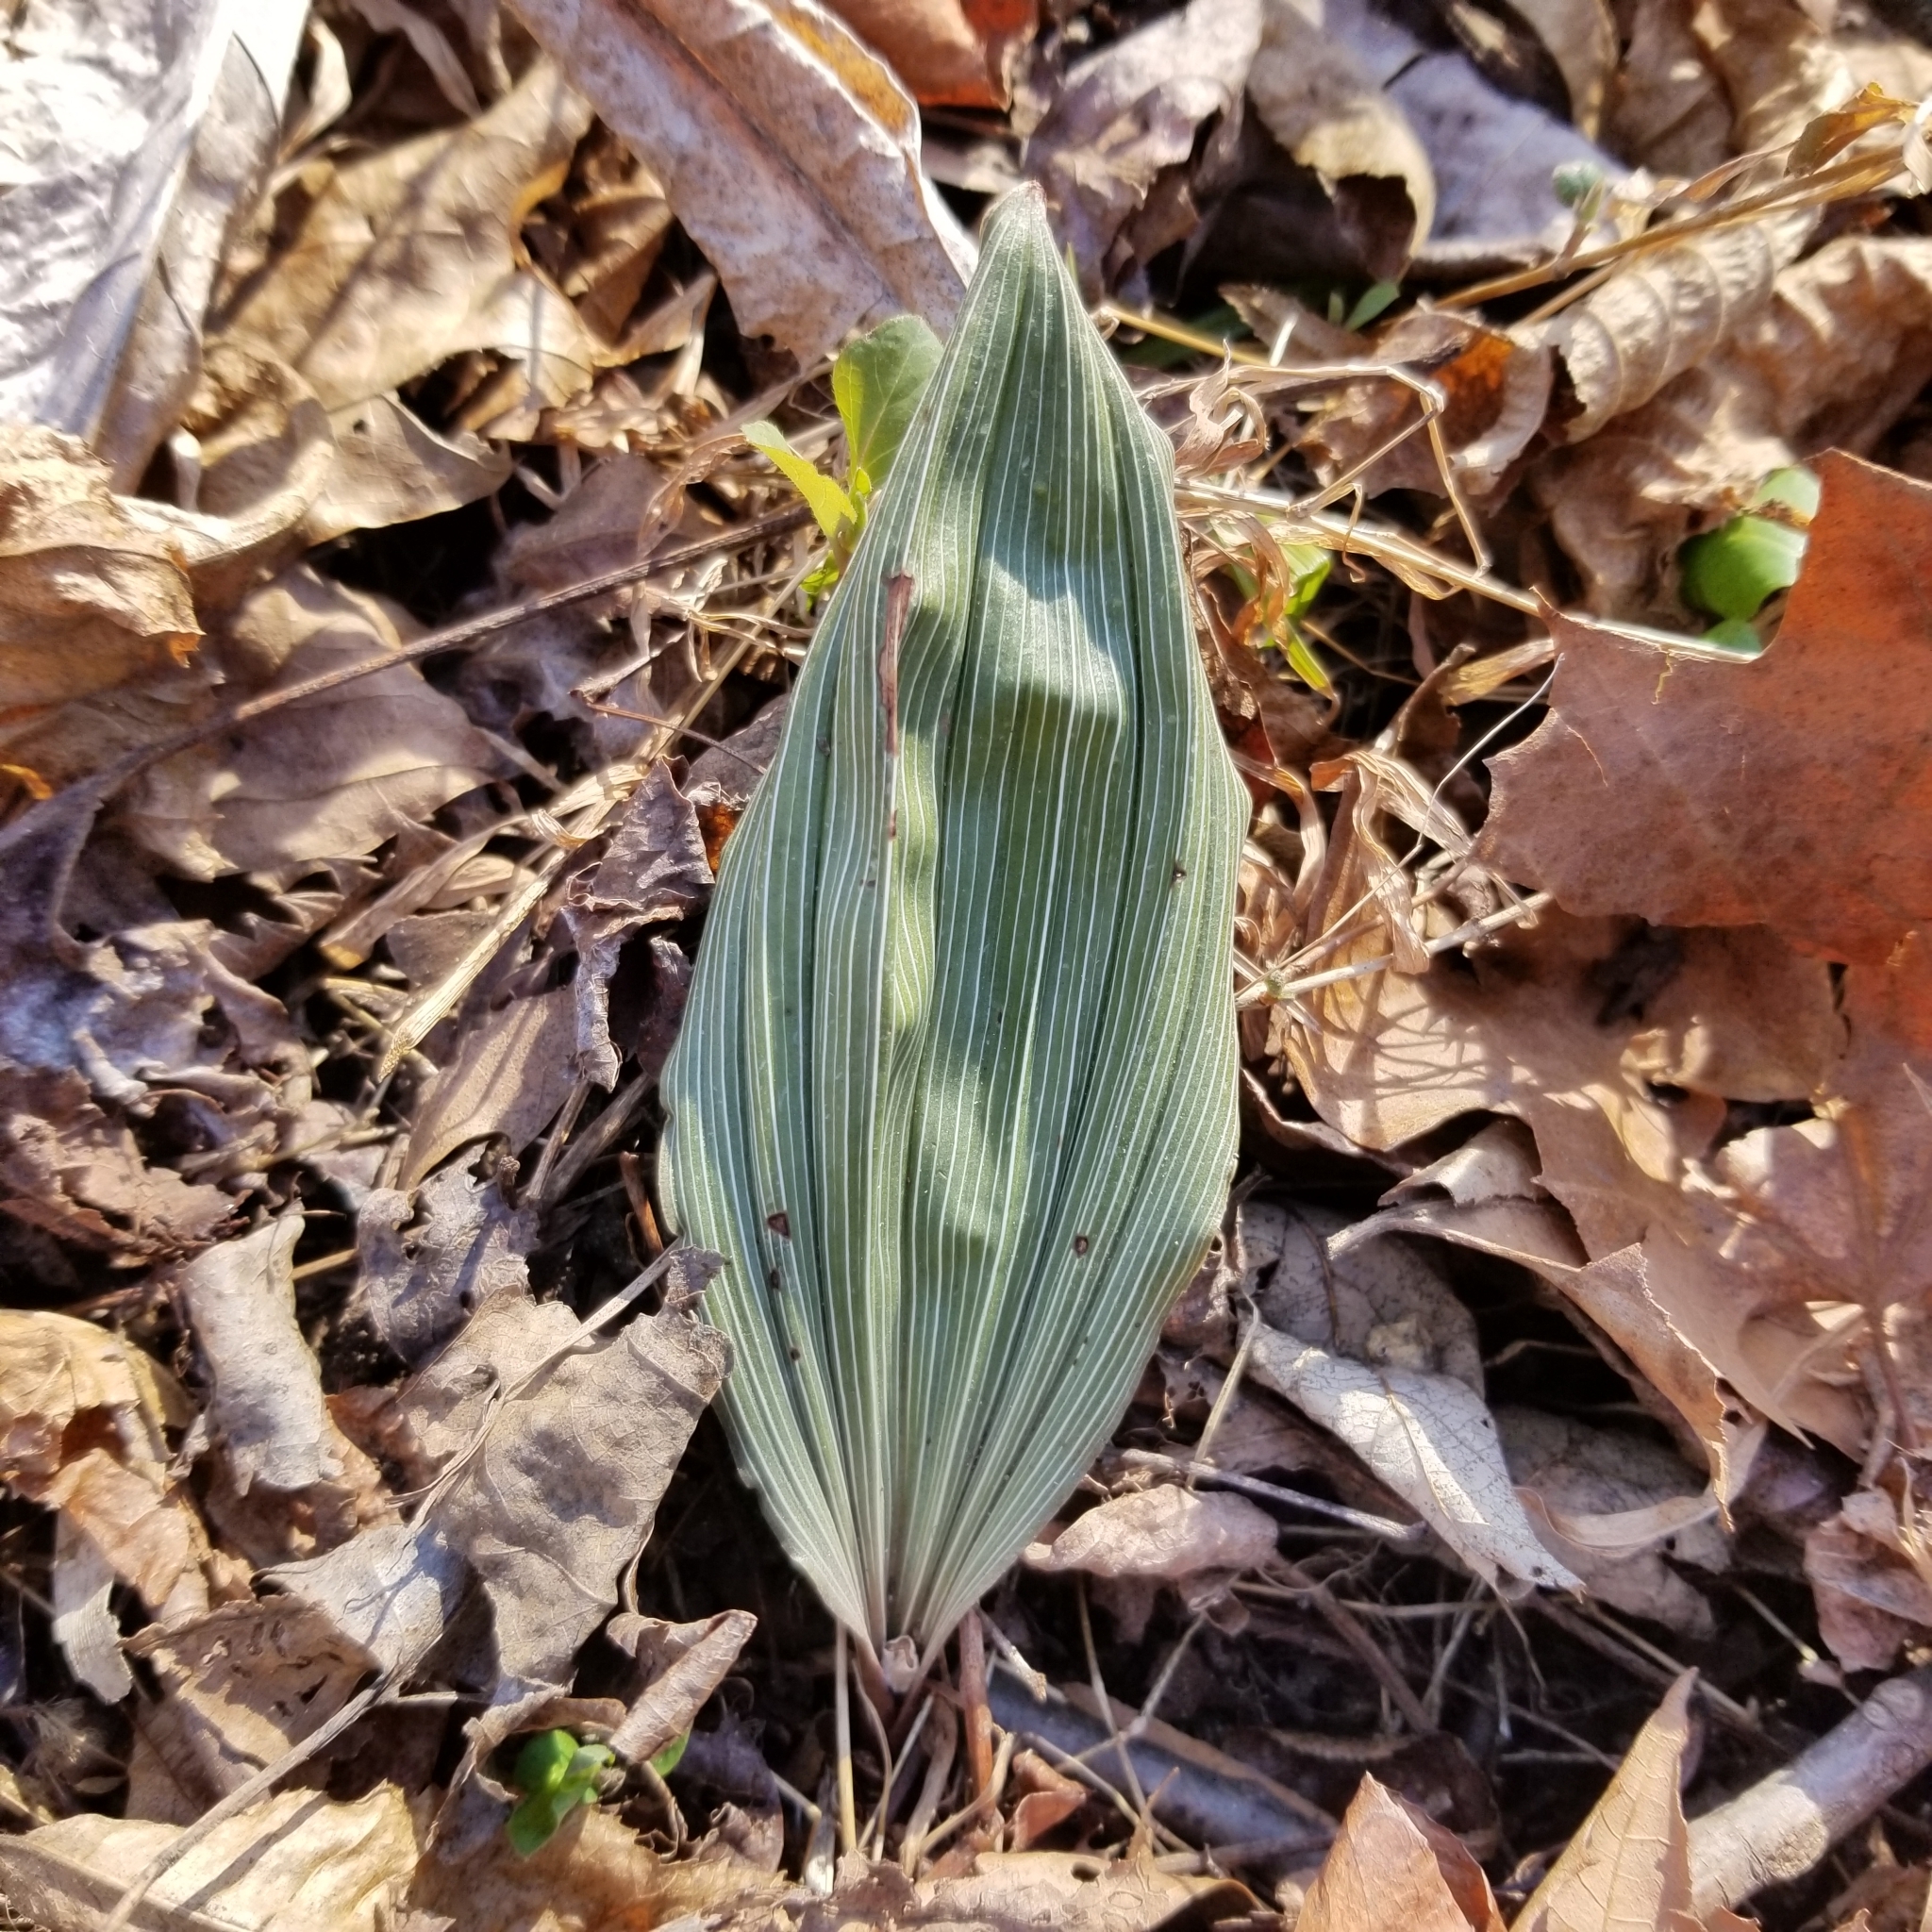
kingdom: Plantae
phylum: Tracheophyta
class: Liliopsida
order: Asparagales
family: Orchidaceae
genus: Aplectrum
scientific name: Aplectrum hyemale
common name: Adam-and-eve
